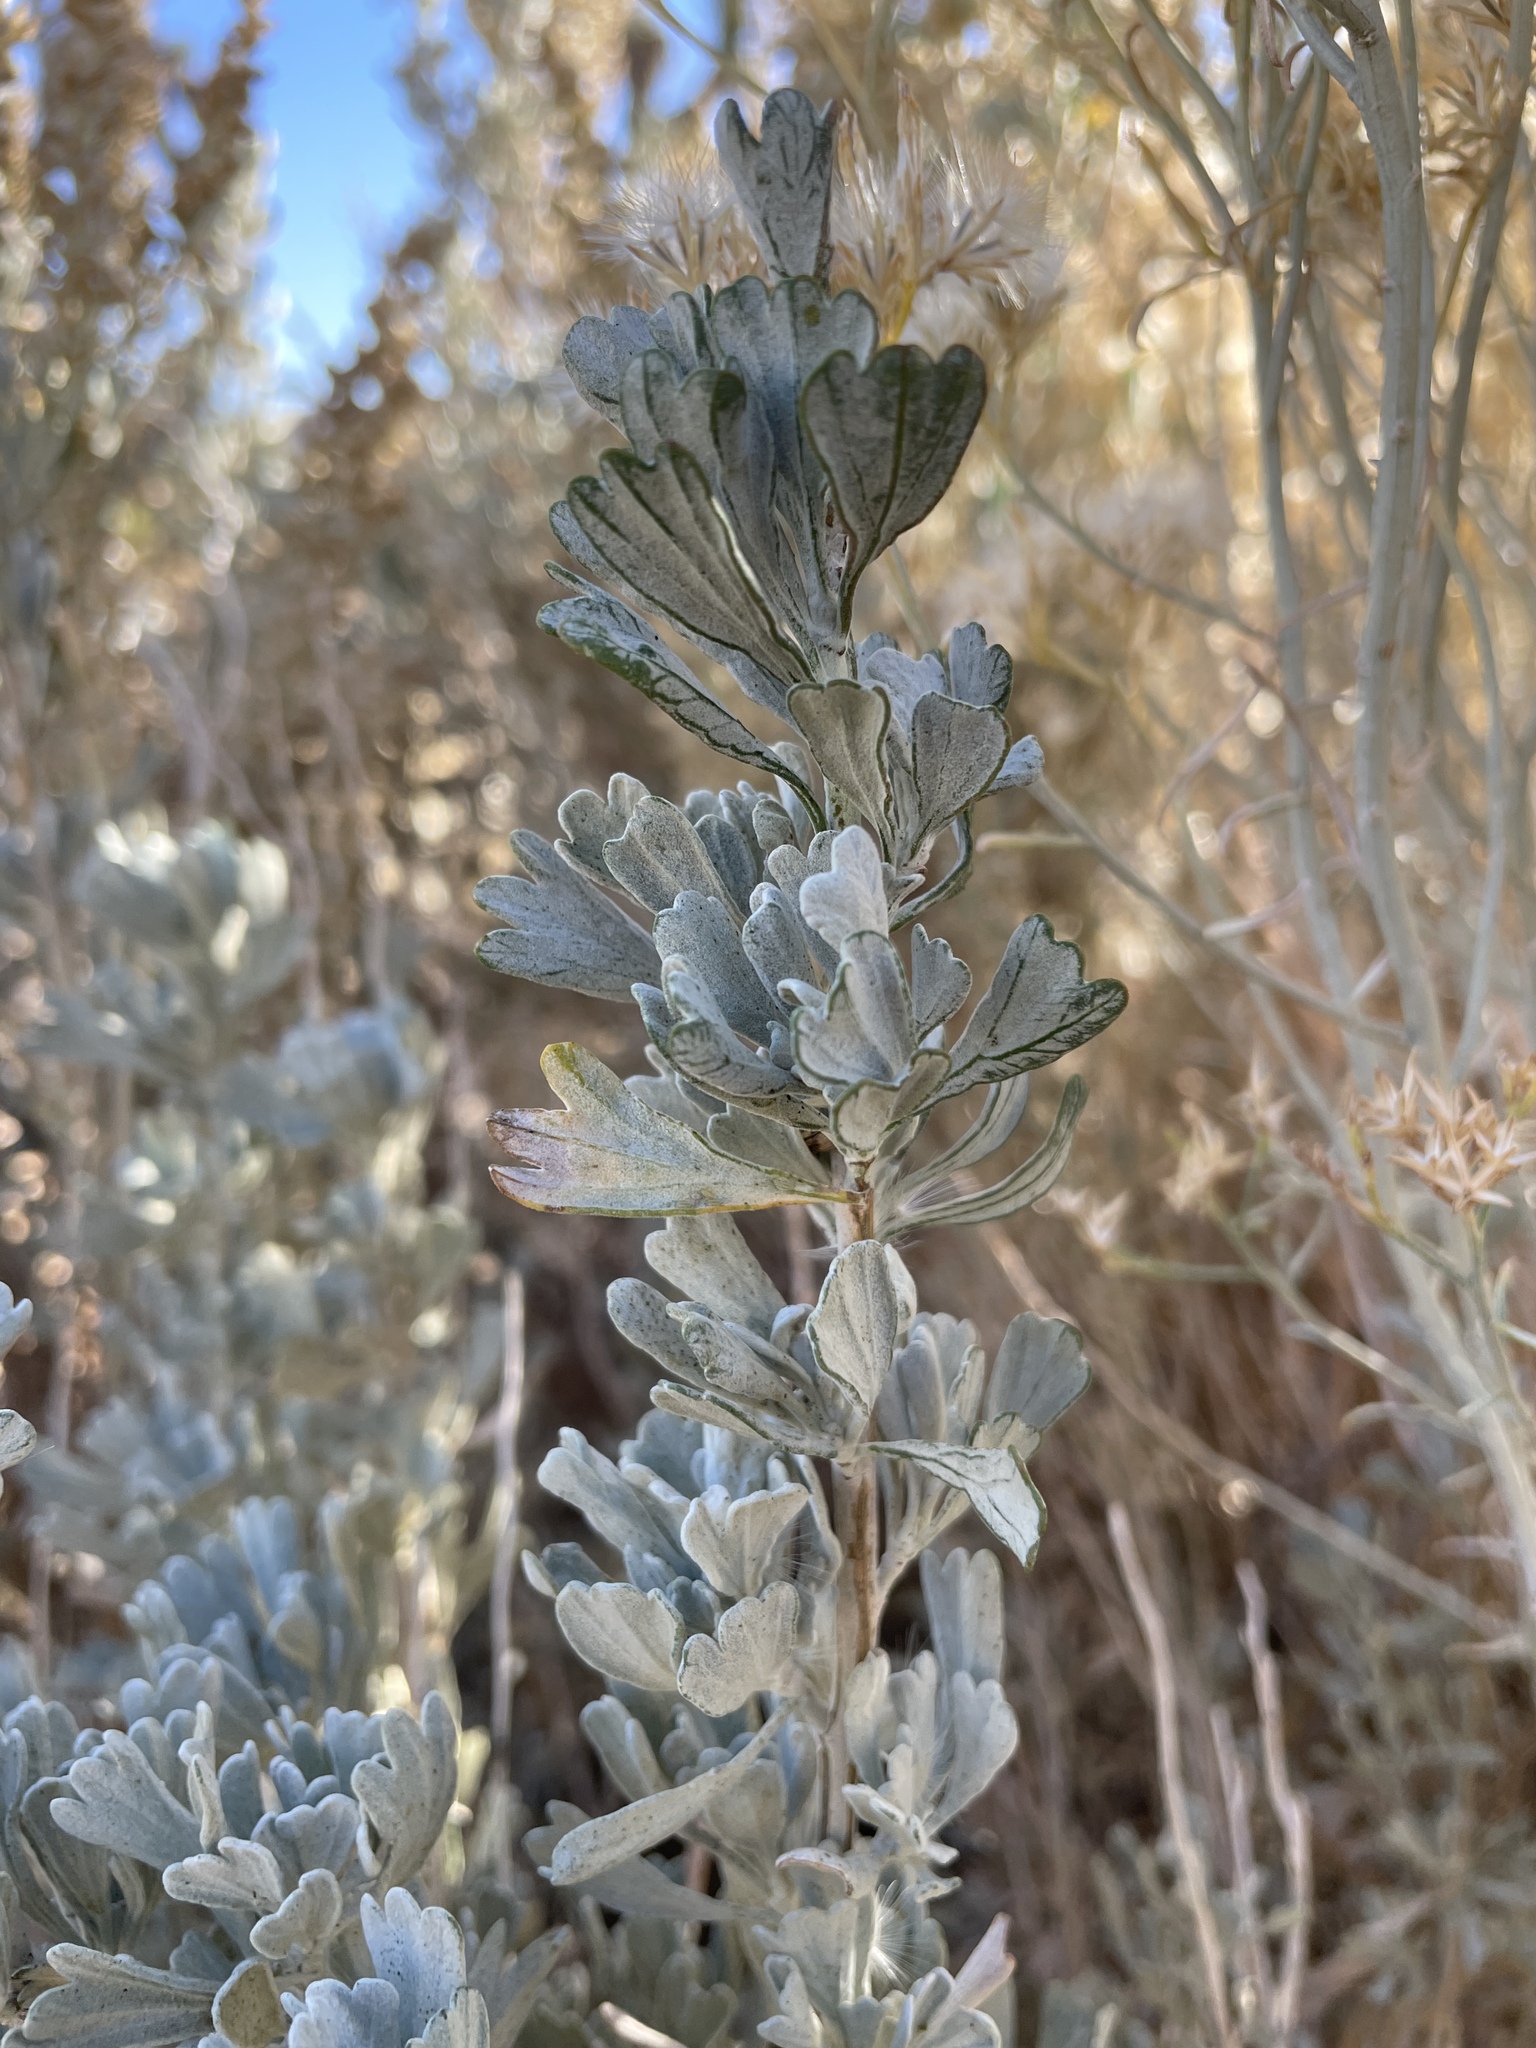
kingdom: Plantae
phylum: Tracheophyta
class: Magnoliopsida
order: Asterales
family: Asteraceae
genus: Artemisia
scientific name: Artemisia tridentata
